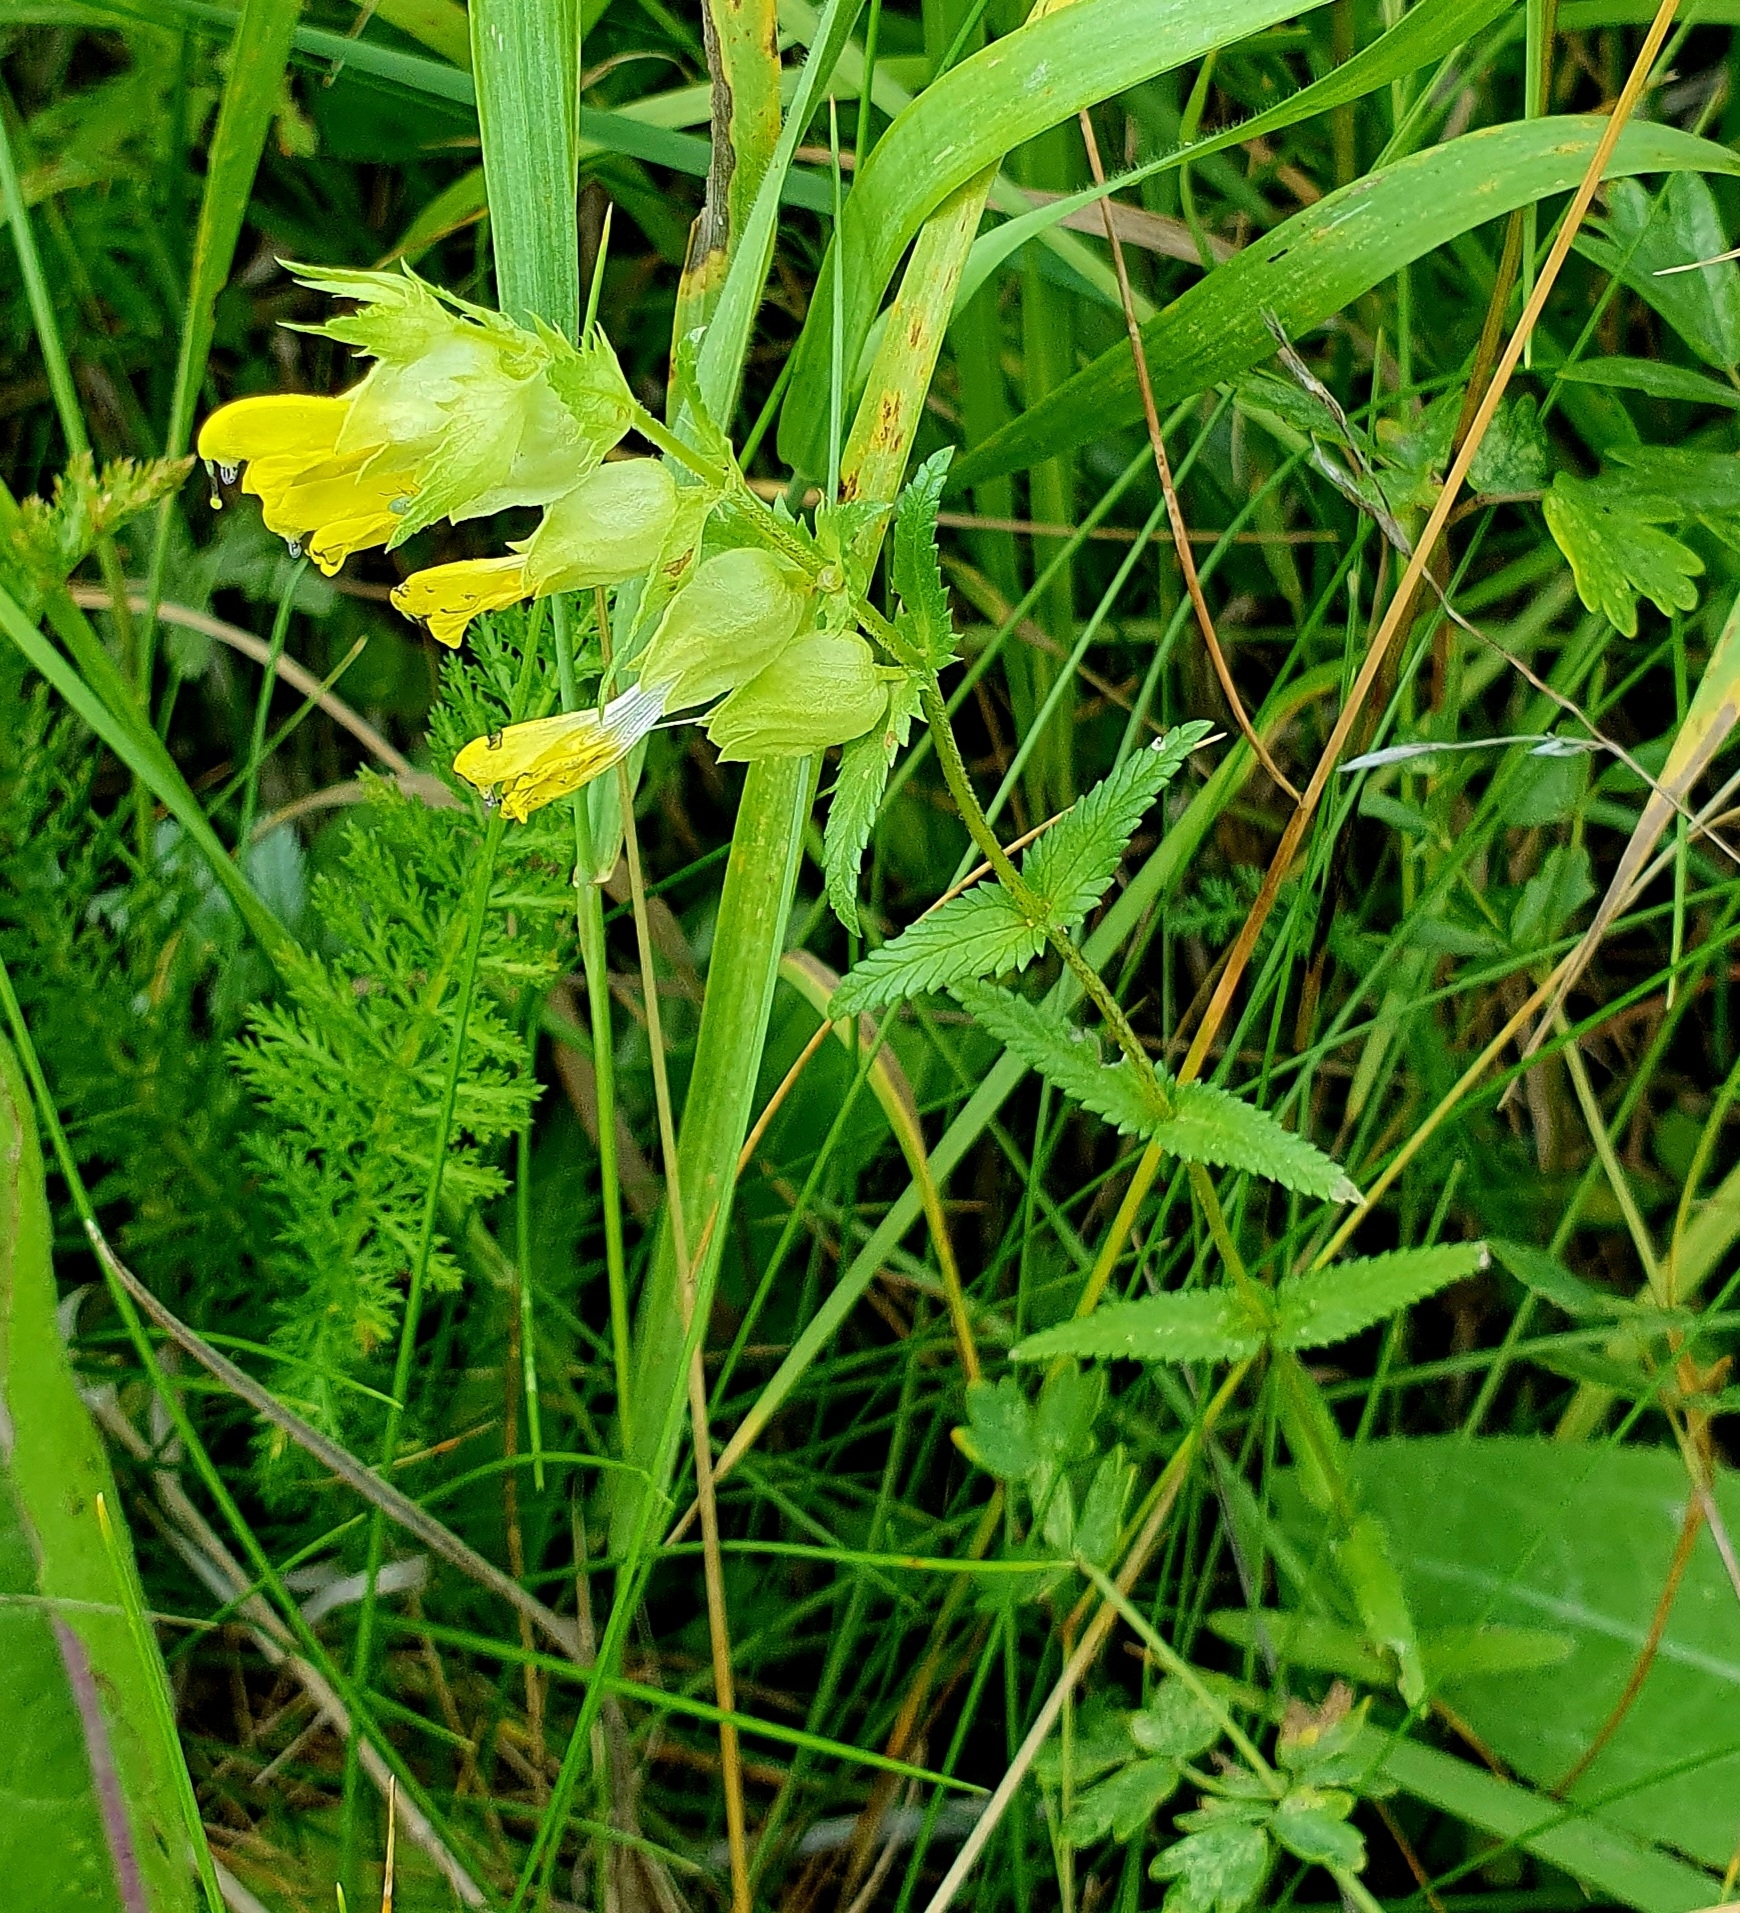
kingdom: Plantae
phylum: Tracheophyta
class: Magnoliopsida
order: Lamiales
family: Orobanchaceae
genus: Rhinanthus
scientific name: Rhinanthus serotinus
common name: Late-flowering yellow rattle
